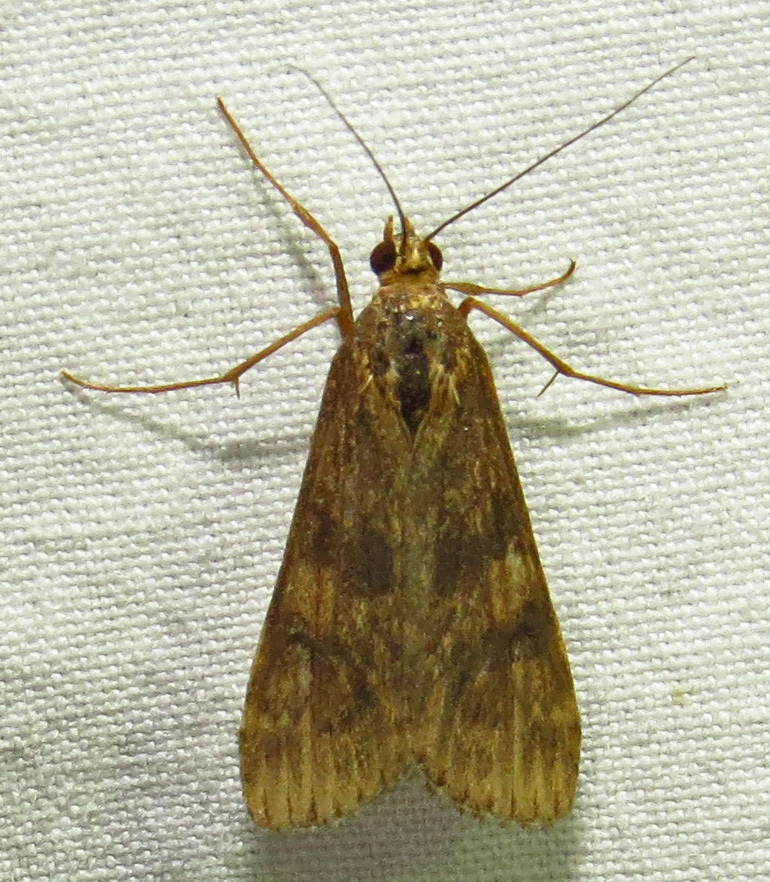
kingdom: Animalia
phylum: Arthropoda
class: Insecta
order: Lepidoptera
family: Crambidae
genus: Nomophila
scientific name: Nomophila nearctica
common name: American rush veneer
